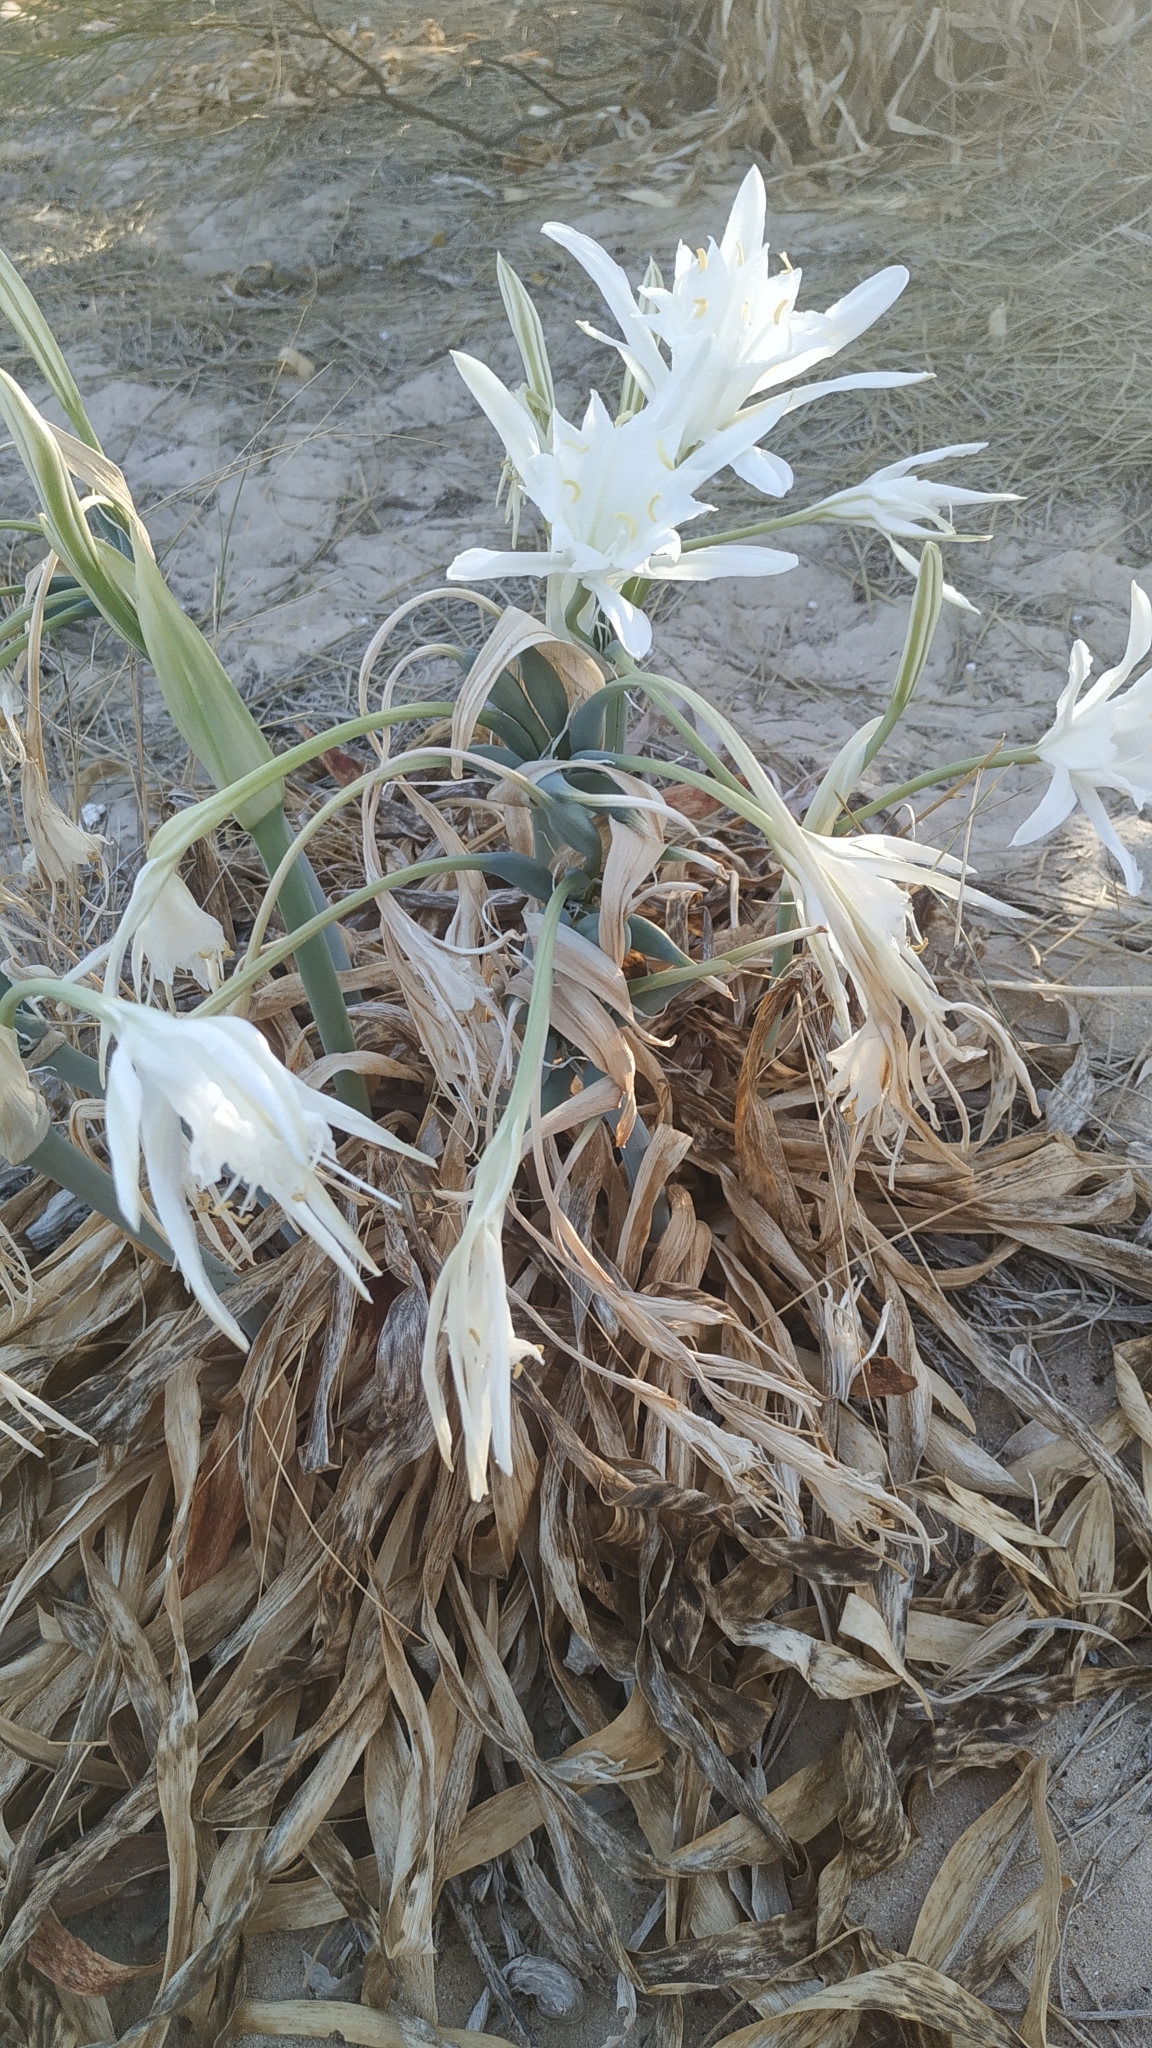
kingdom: Plantae
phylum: Tracheophyta
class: Liliopsida
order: Asparagales
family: Amaryllidaceae
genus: Pancratium
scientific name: Pancratium maritimum
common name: Sea-daffodil
